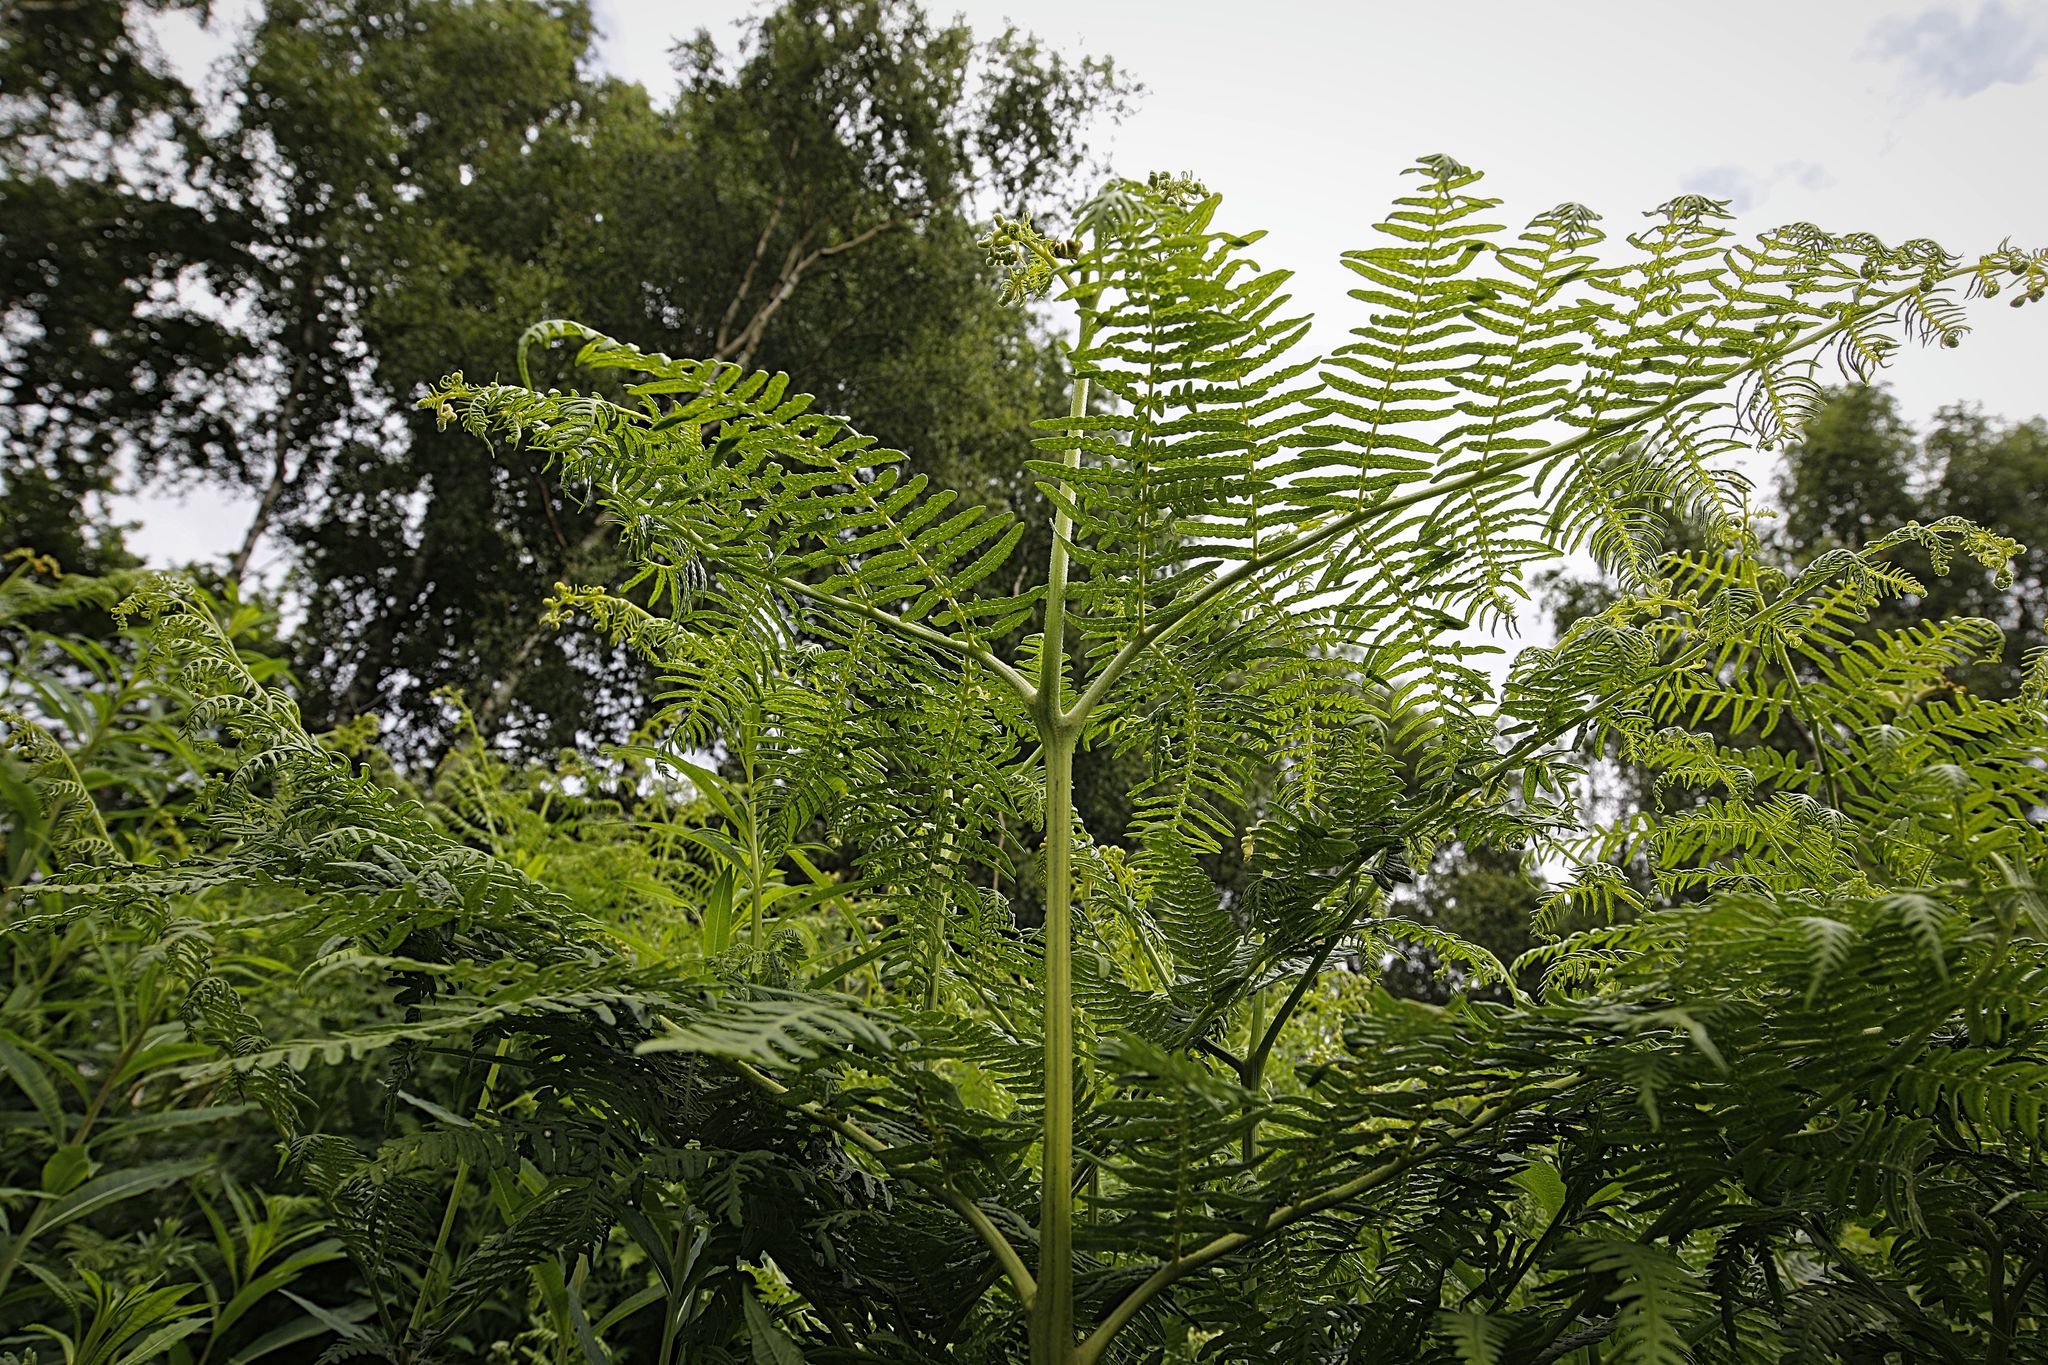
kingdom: Plantae
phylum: Tracheophyta
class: Polypodiopsida
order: Polypodiales
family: Dennstaedtiaceae
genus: Pteridium
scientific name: Pteridium aquilinum
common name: Bracken
